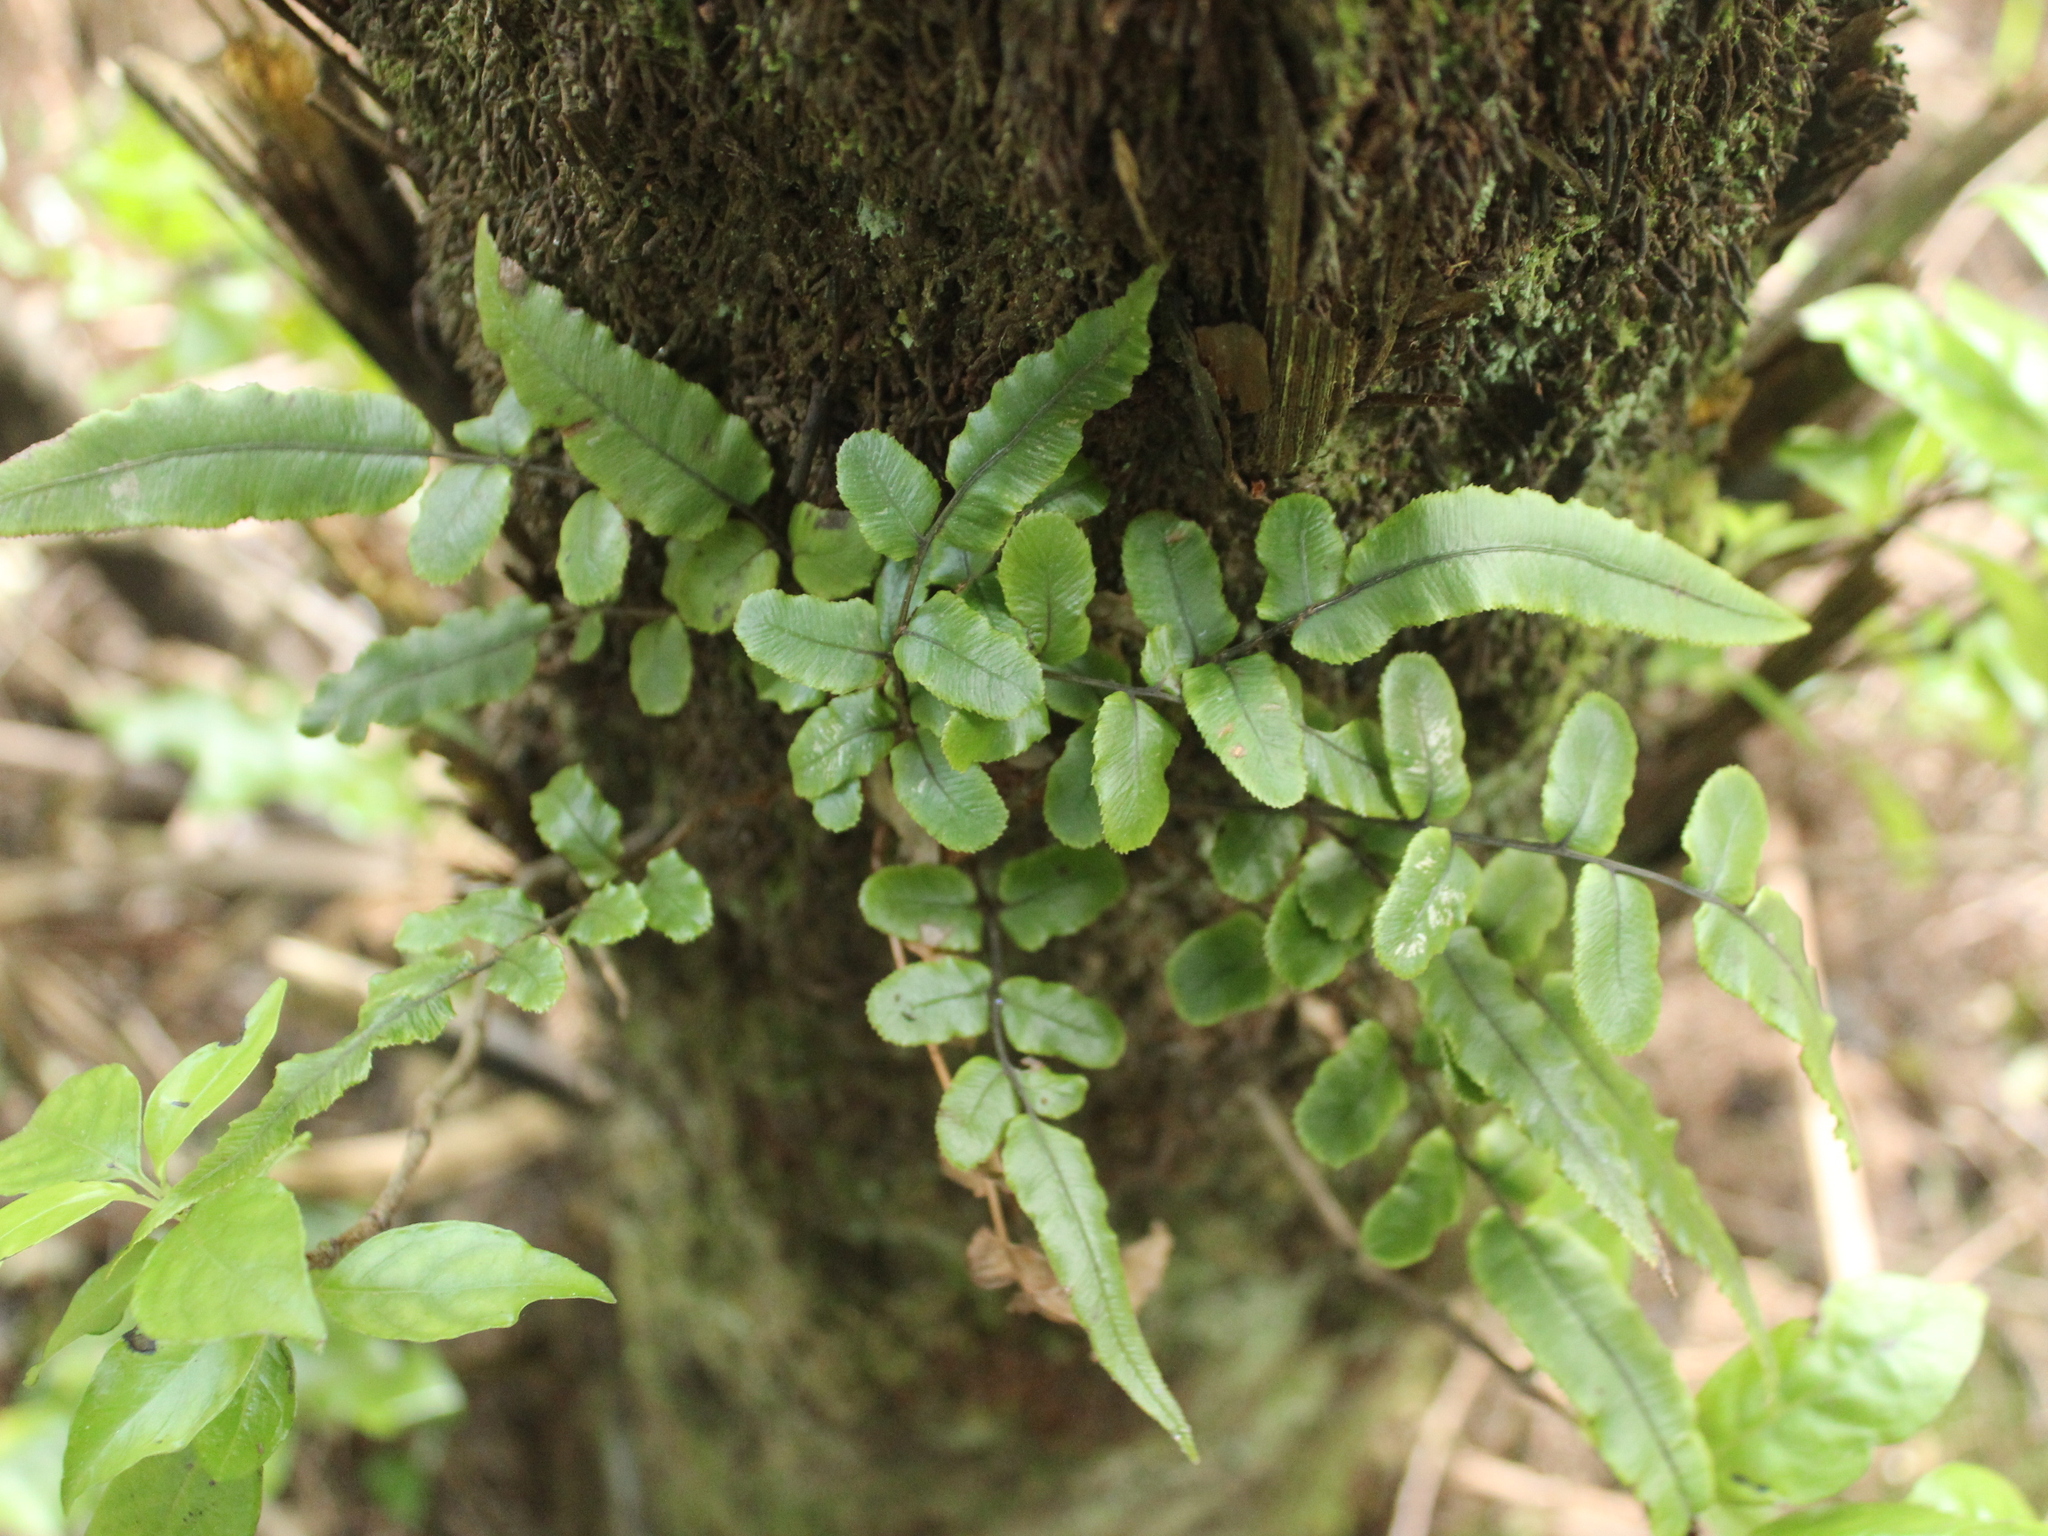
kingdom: Plantae
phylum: Tracheophyta
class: Polypodiopsida
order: Polypodiales
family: Blechnaceae
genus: Parablechnum
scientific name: Parablechnum procerum
